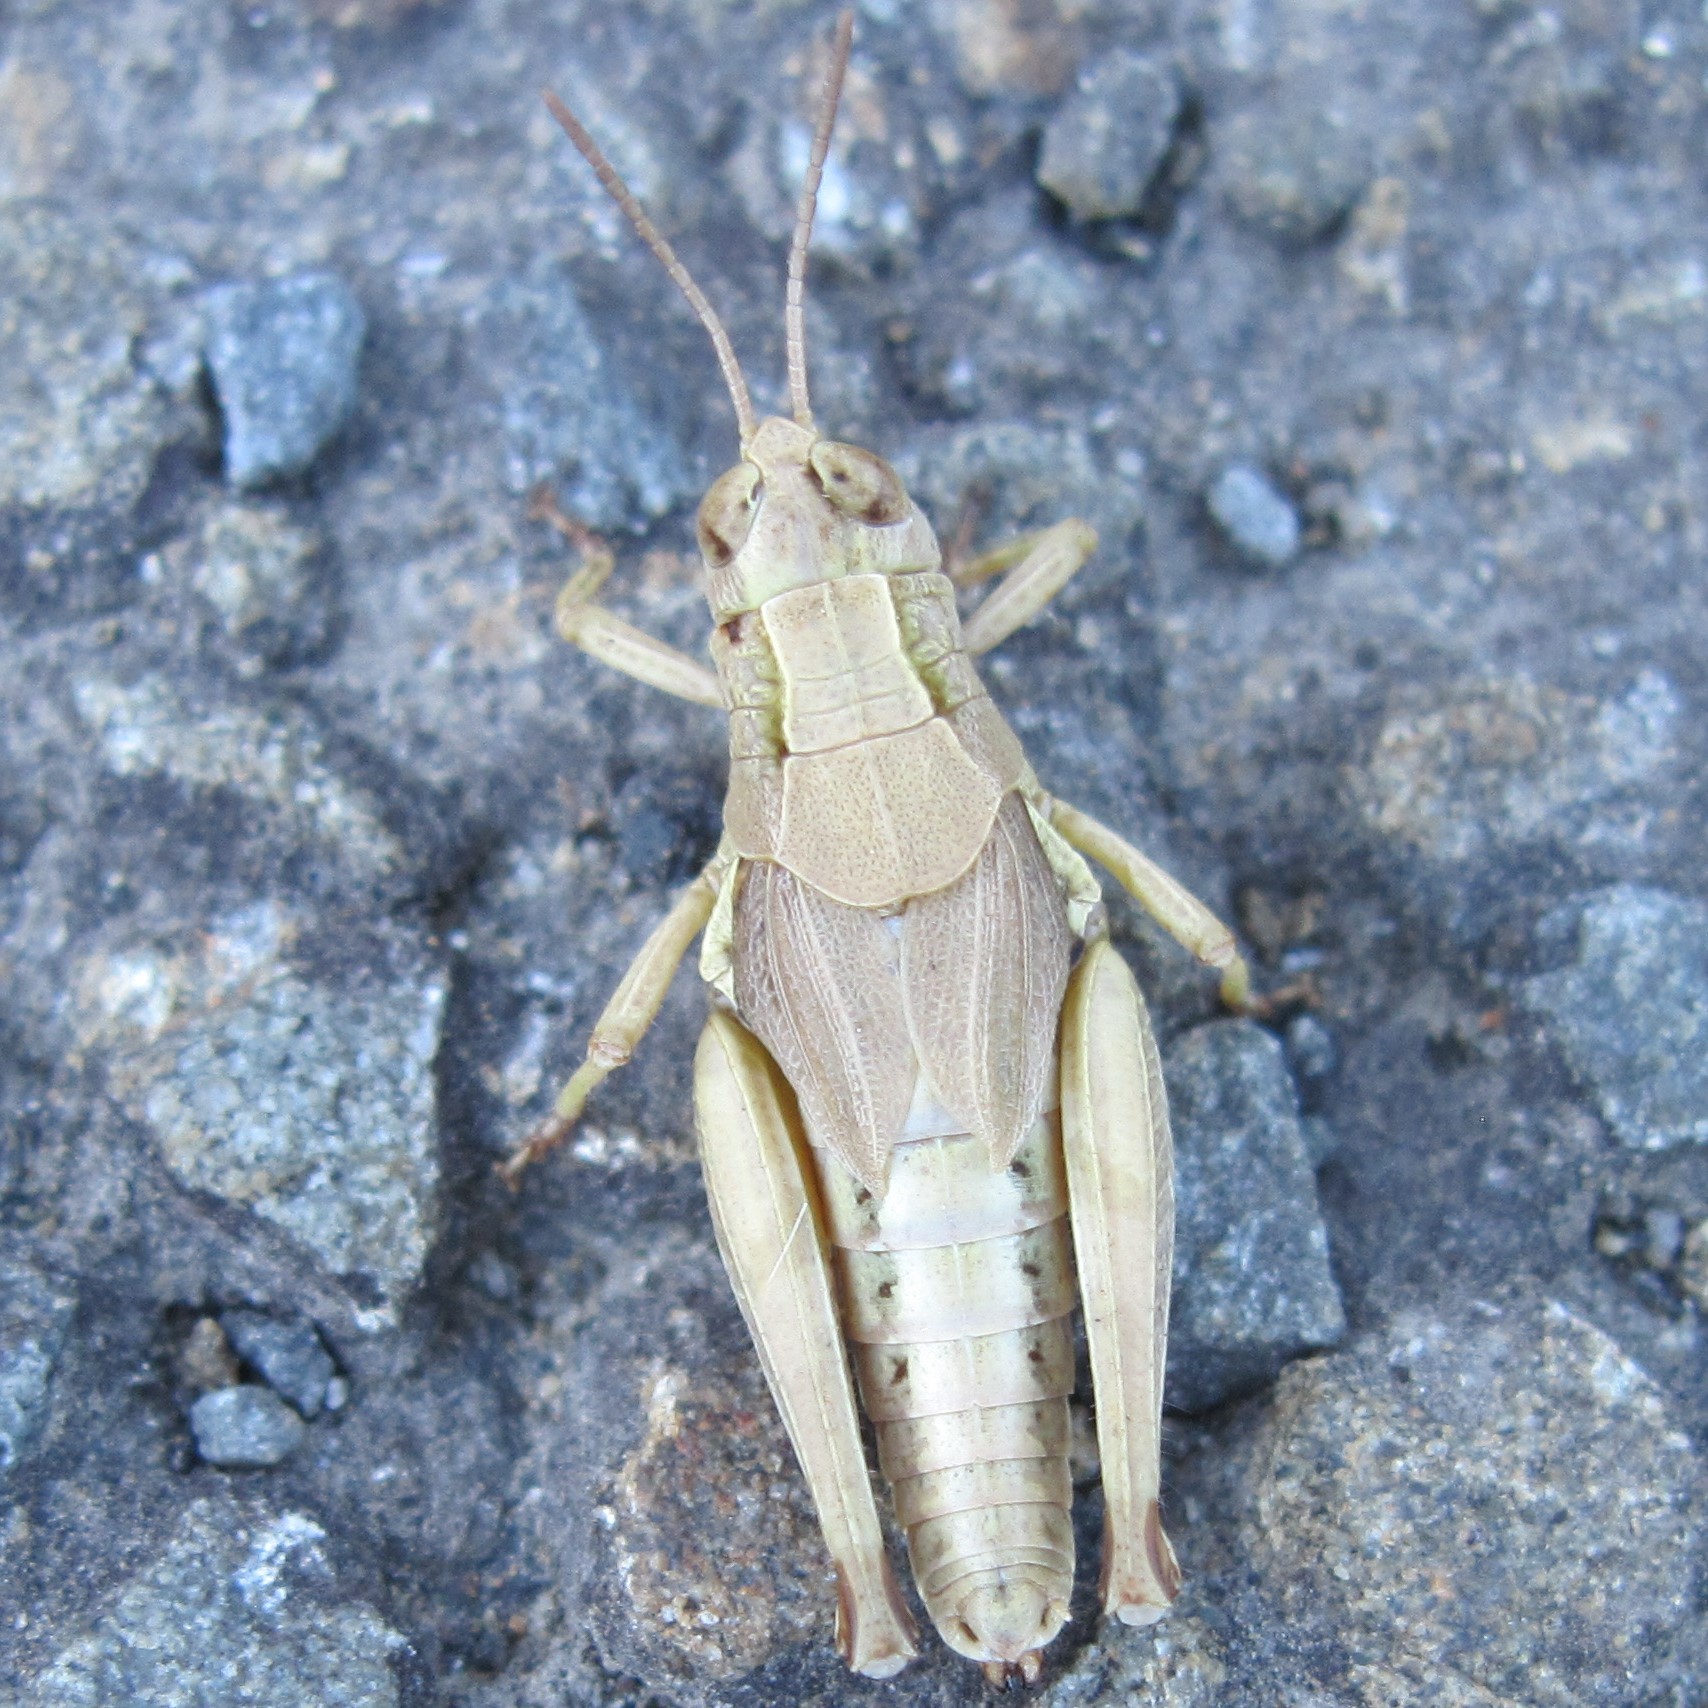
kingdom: Animalia
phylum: Arthropoda
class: Insecta
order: Orthoptera
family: Acrididae
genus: Phaulacridium
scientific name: Phaulacridium marginale
